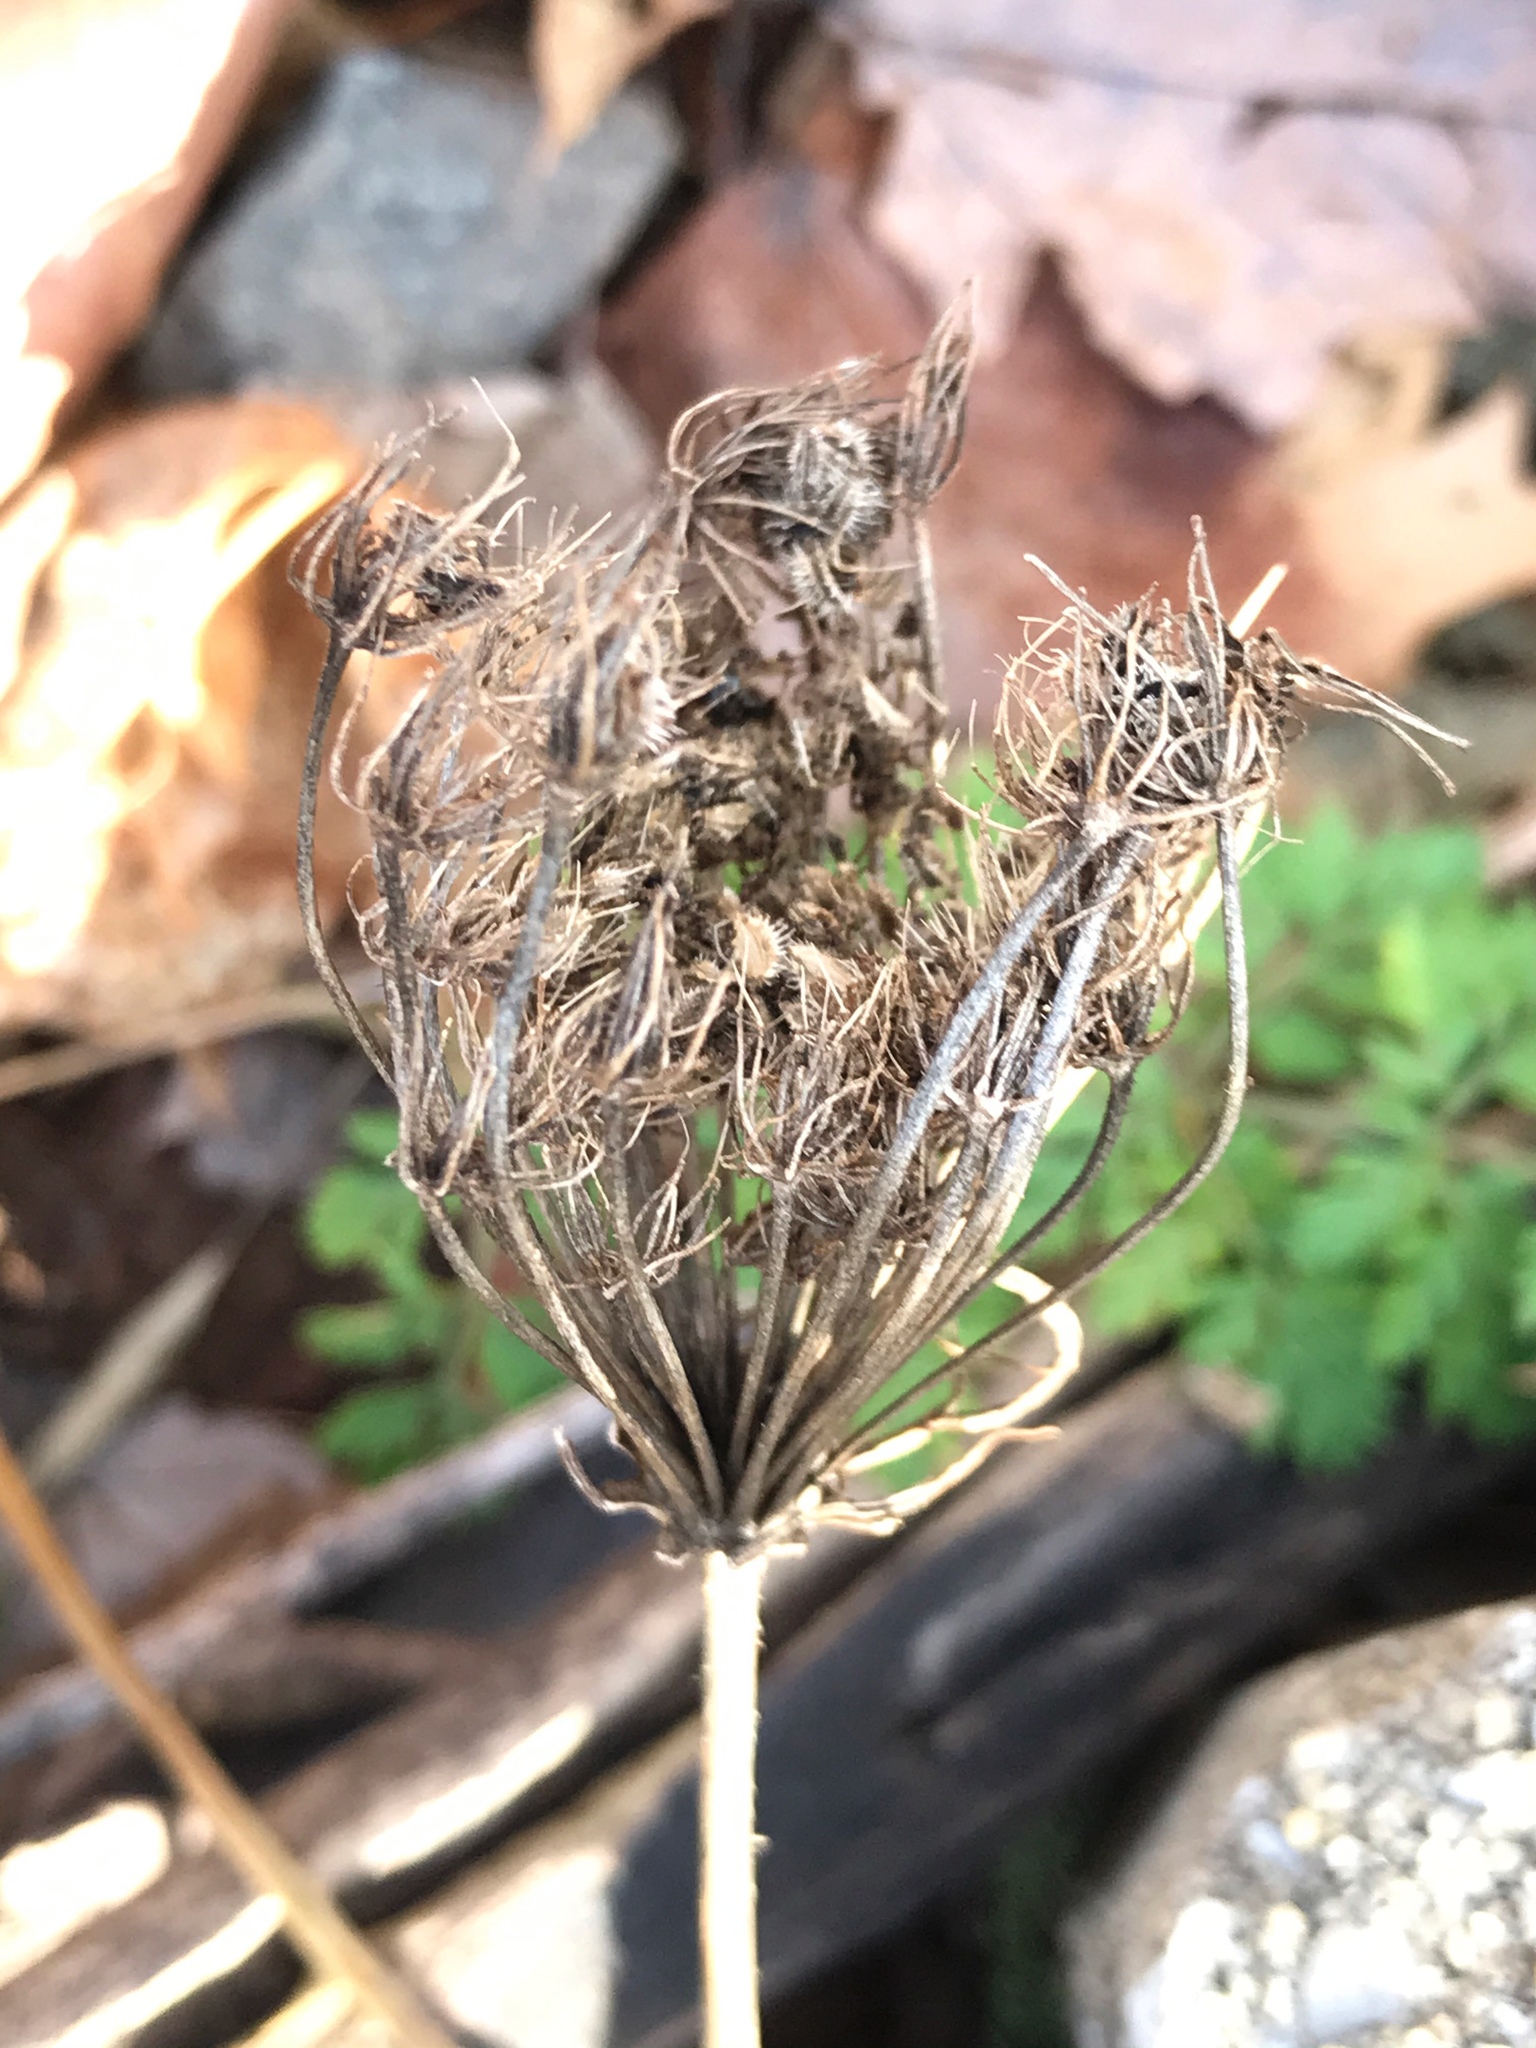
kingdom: Plantae
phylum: Tracheophyta
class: Magnoliopsida
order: Apiales
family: Apiaceae
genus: Daucus
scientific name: Daucus carota
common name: Wild carrot
